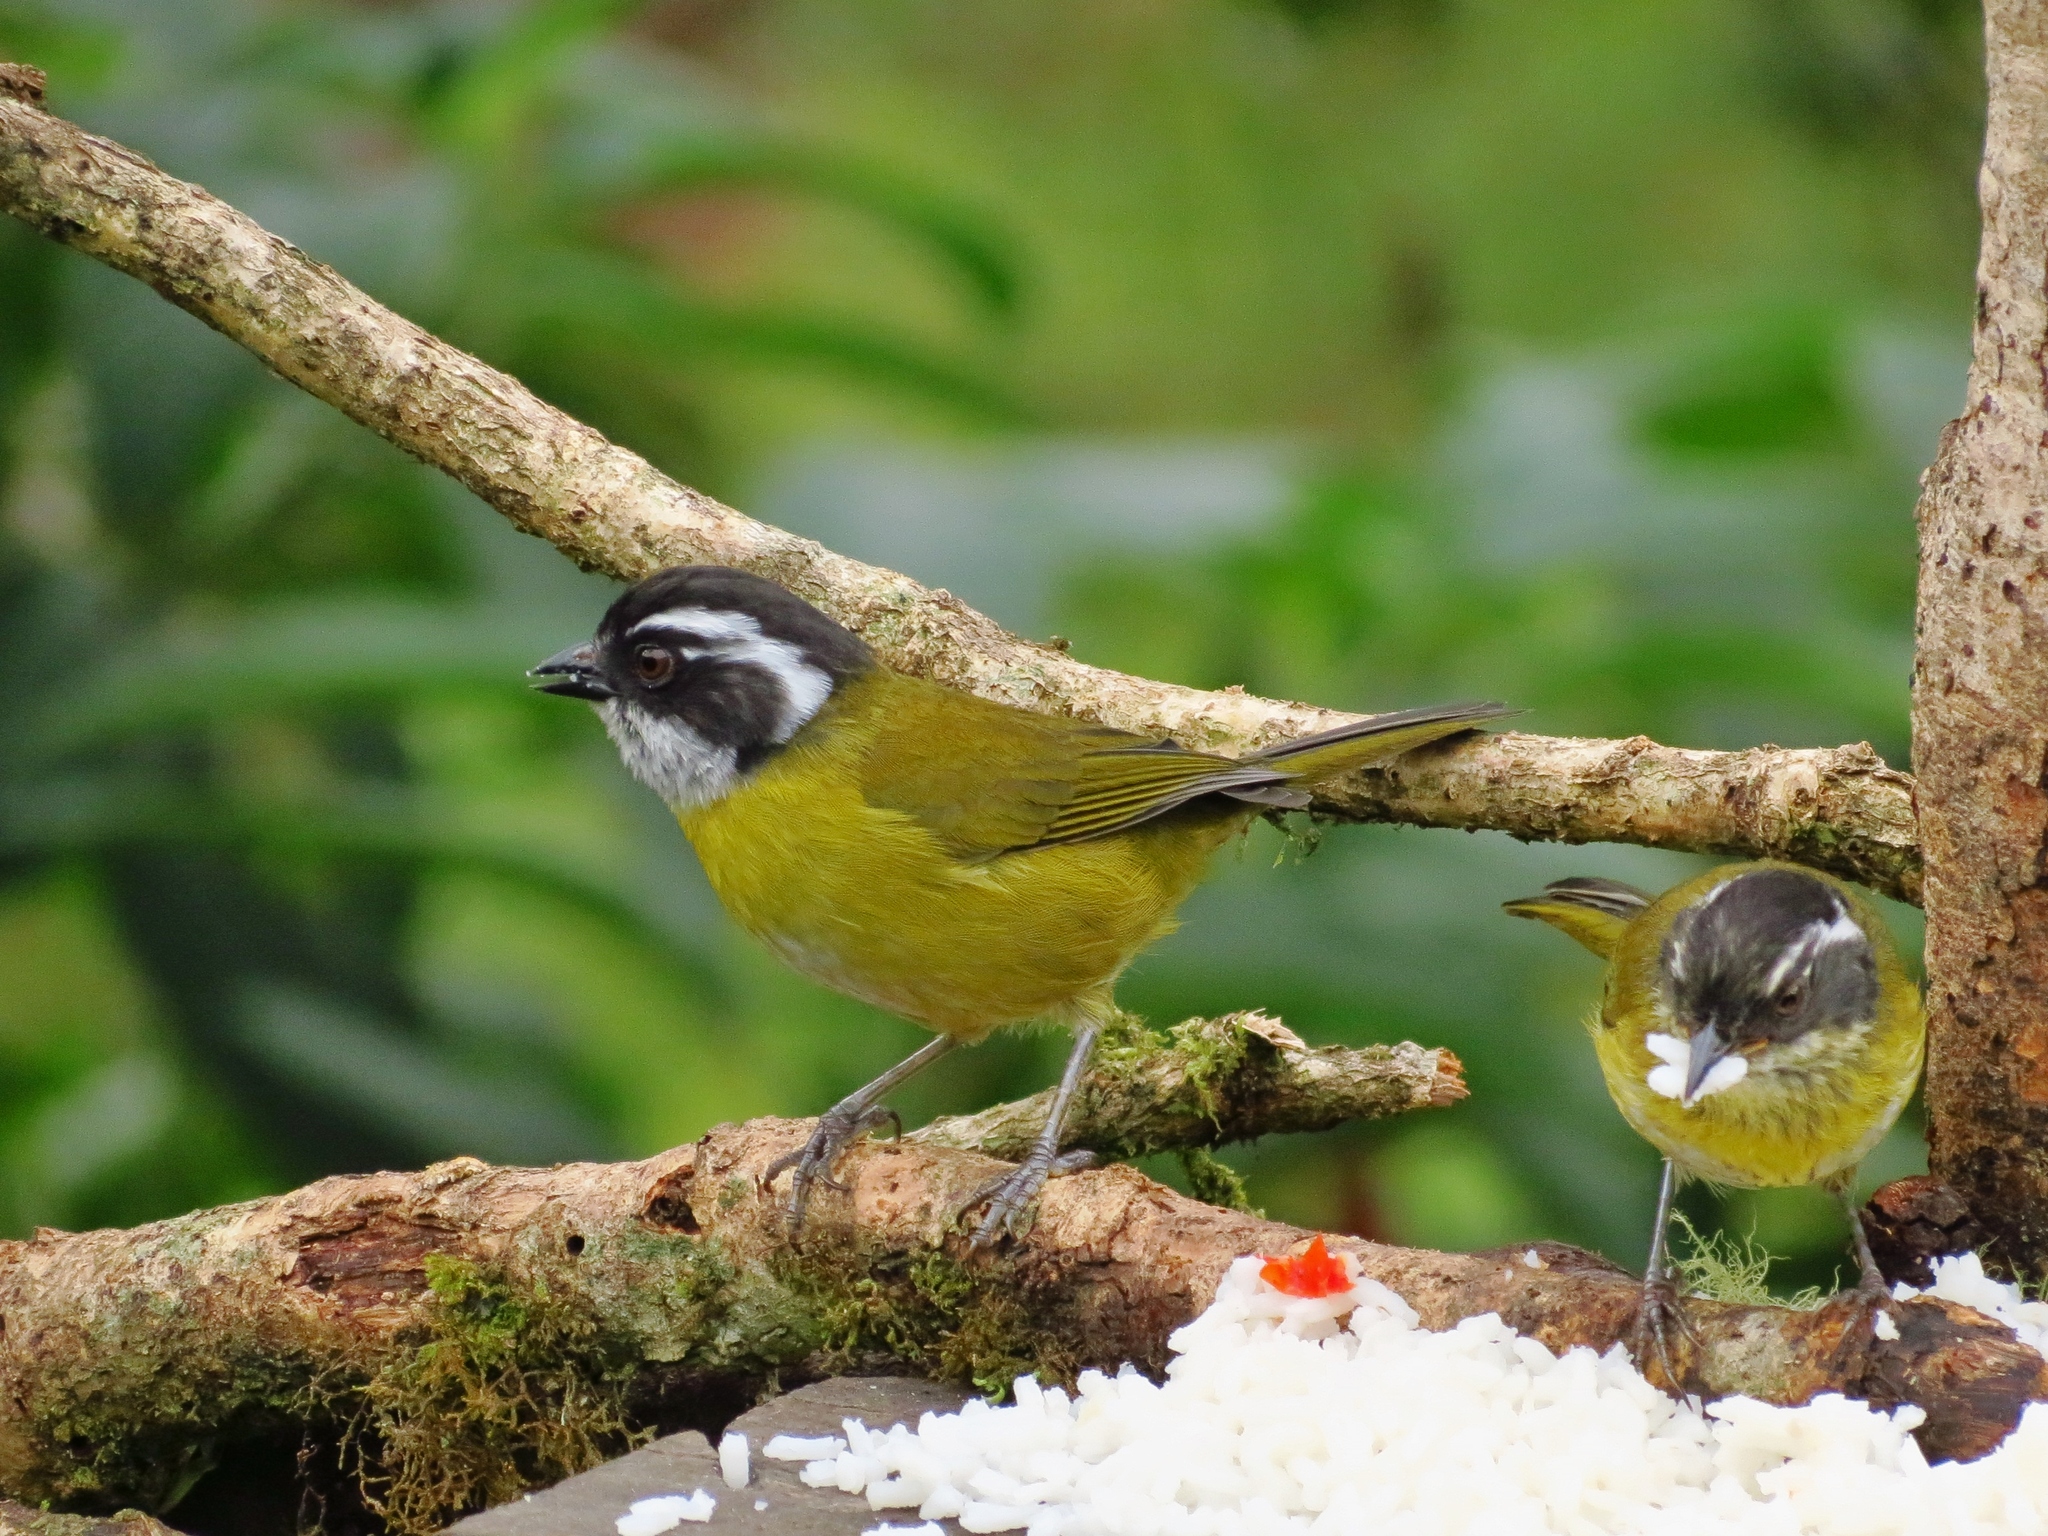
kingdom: Animalia
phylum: Chordata
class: Aves
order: Passeriformes
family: Passerellidae
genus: Chlorospingus
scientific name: Chlorospingus pileatus
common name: Sooty-capped bush-tanager
